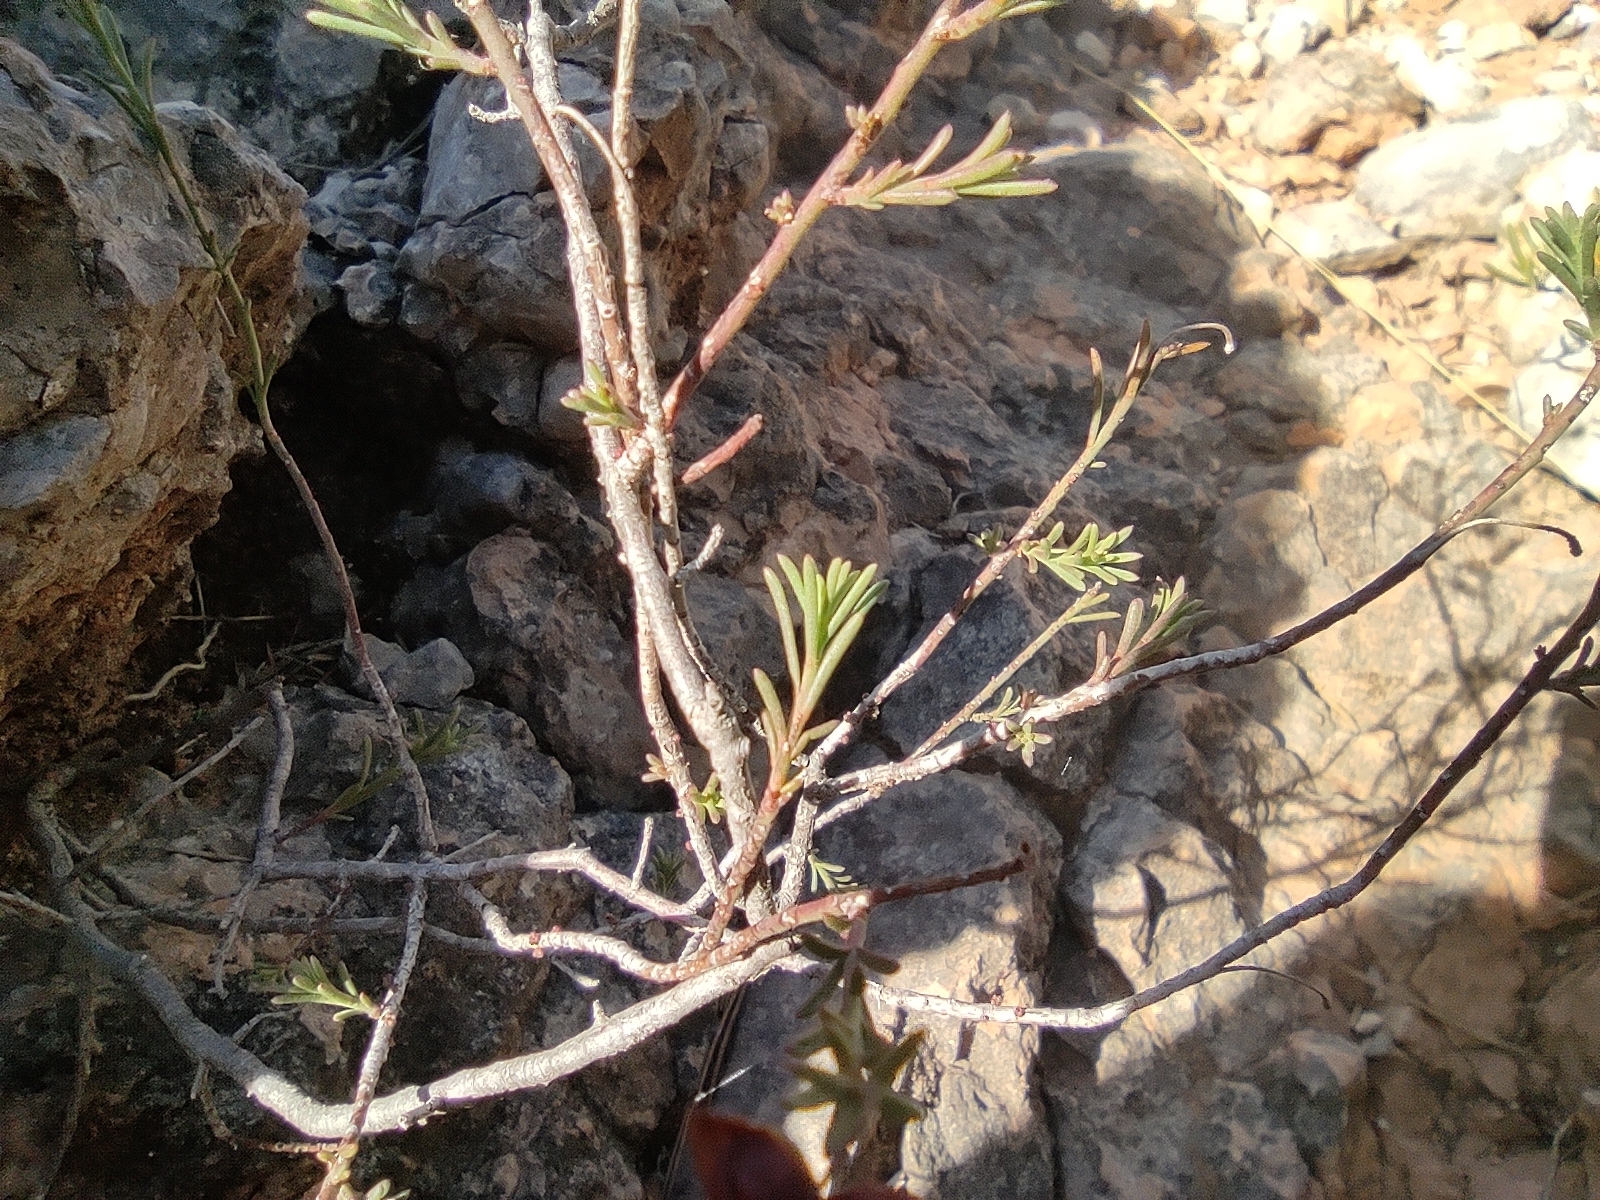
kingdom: Plantae
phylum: Tracheophyta
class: Magnoliopsida
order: Malvales
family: Cistaceae
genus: Fumana
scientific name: Fumana ericifolia
